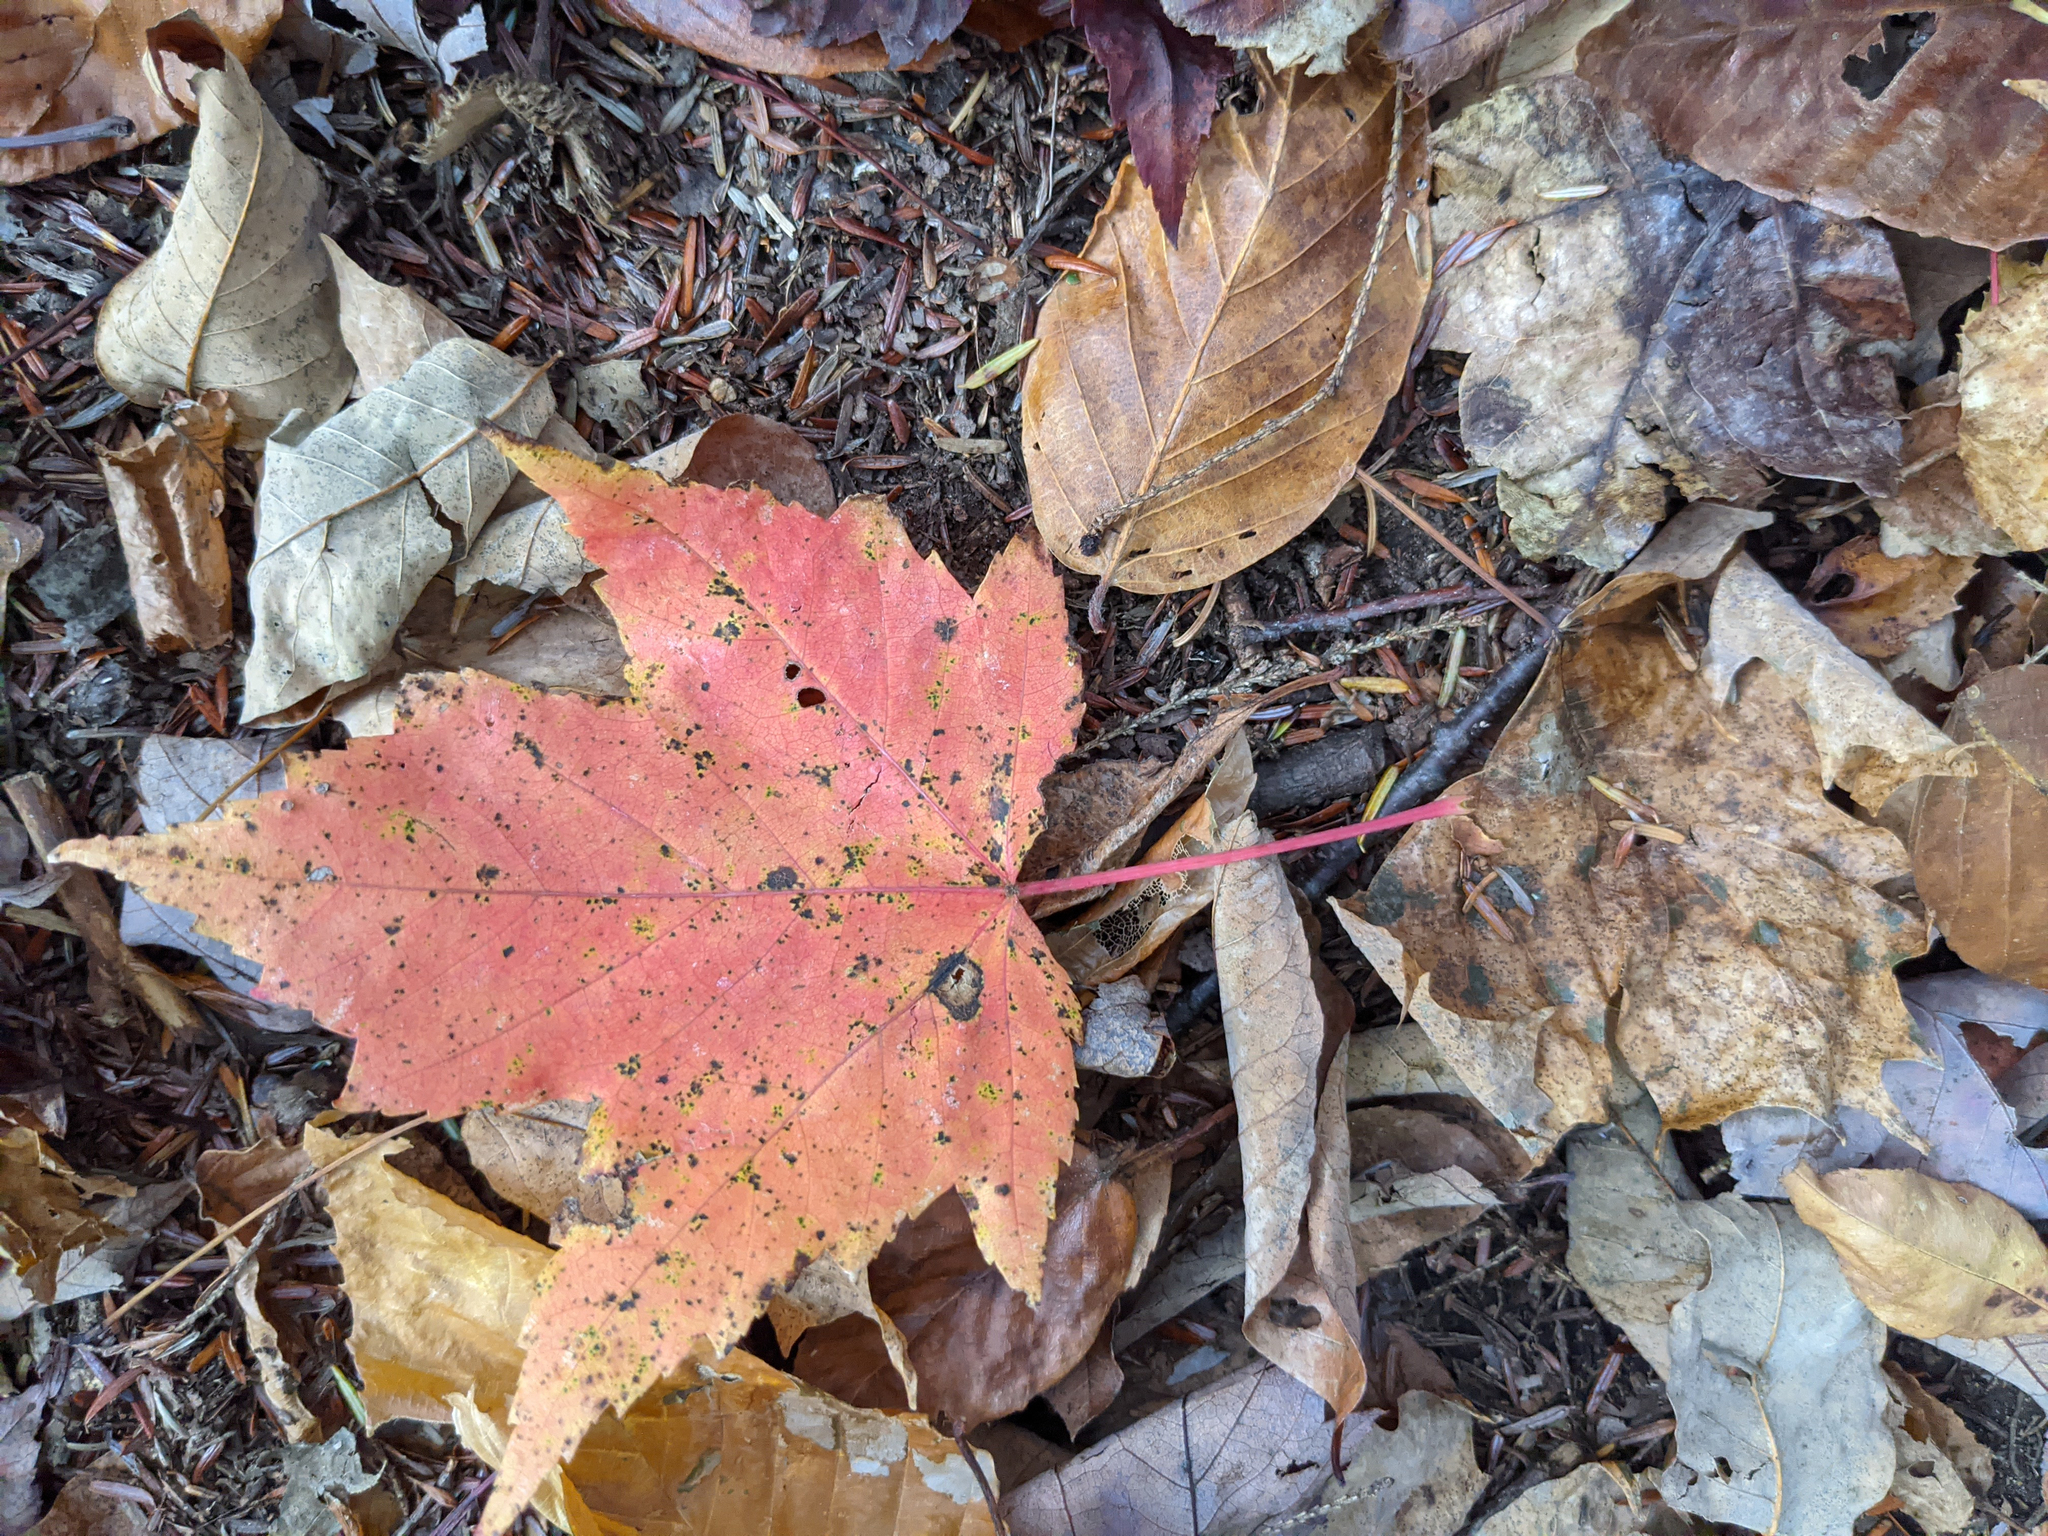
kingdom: Plantae
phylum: Tracheophyta
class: Magnoliopsida
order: Sapindales
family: Sapindaceae
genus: Acer
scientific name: Acer rubrum
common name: Red maple
